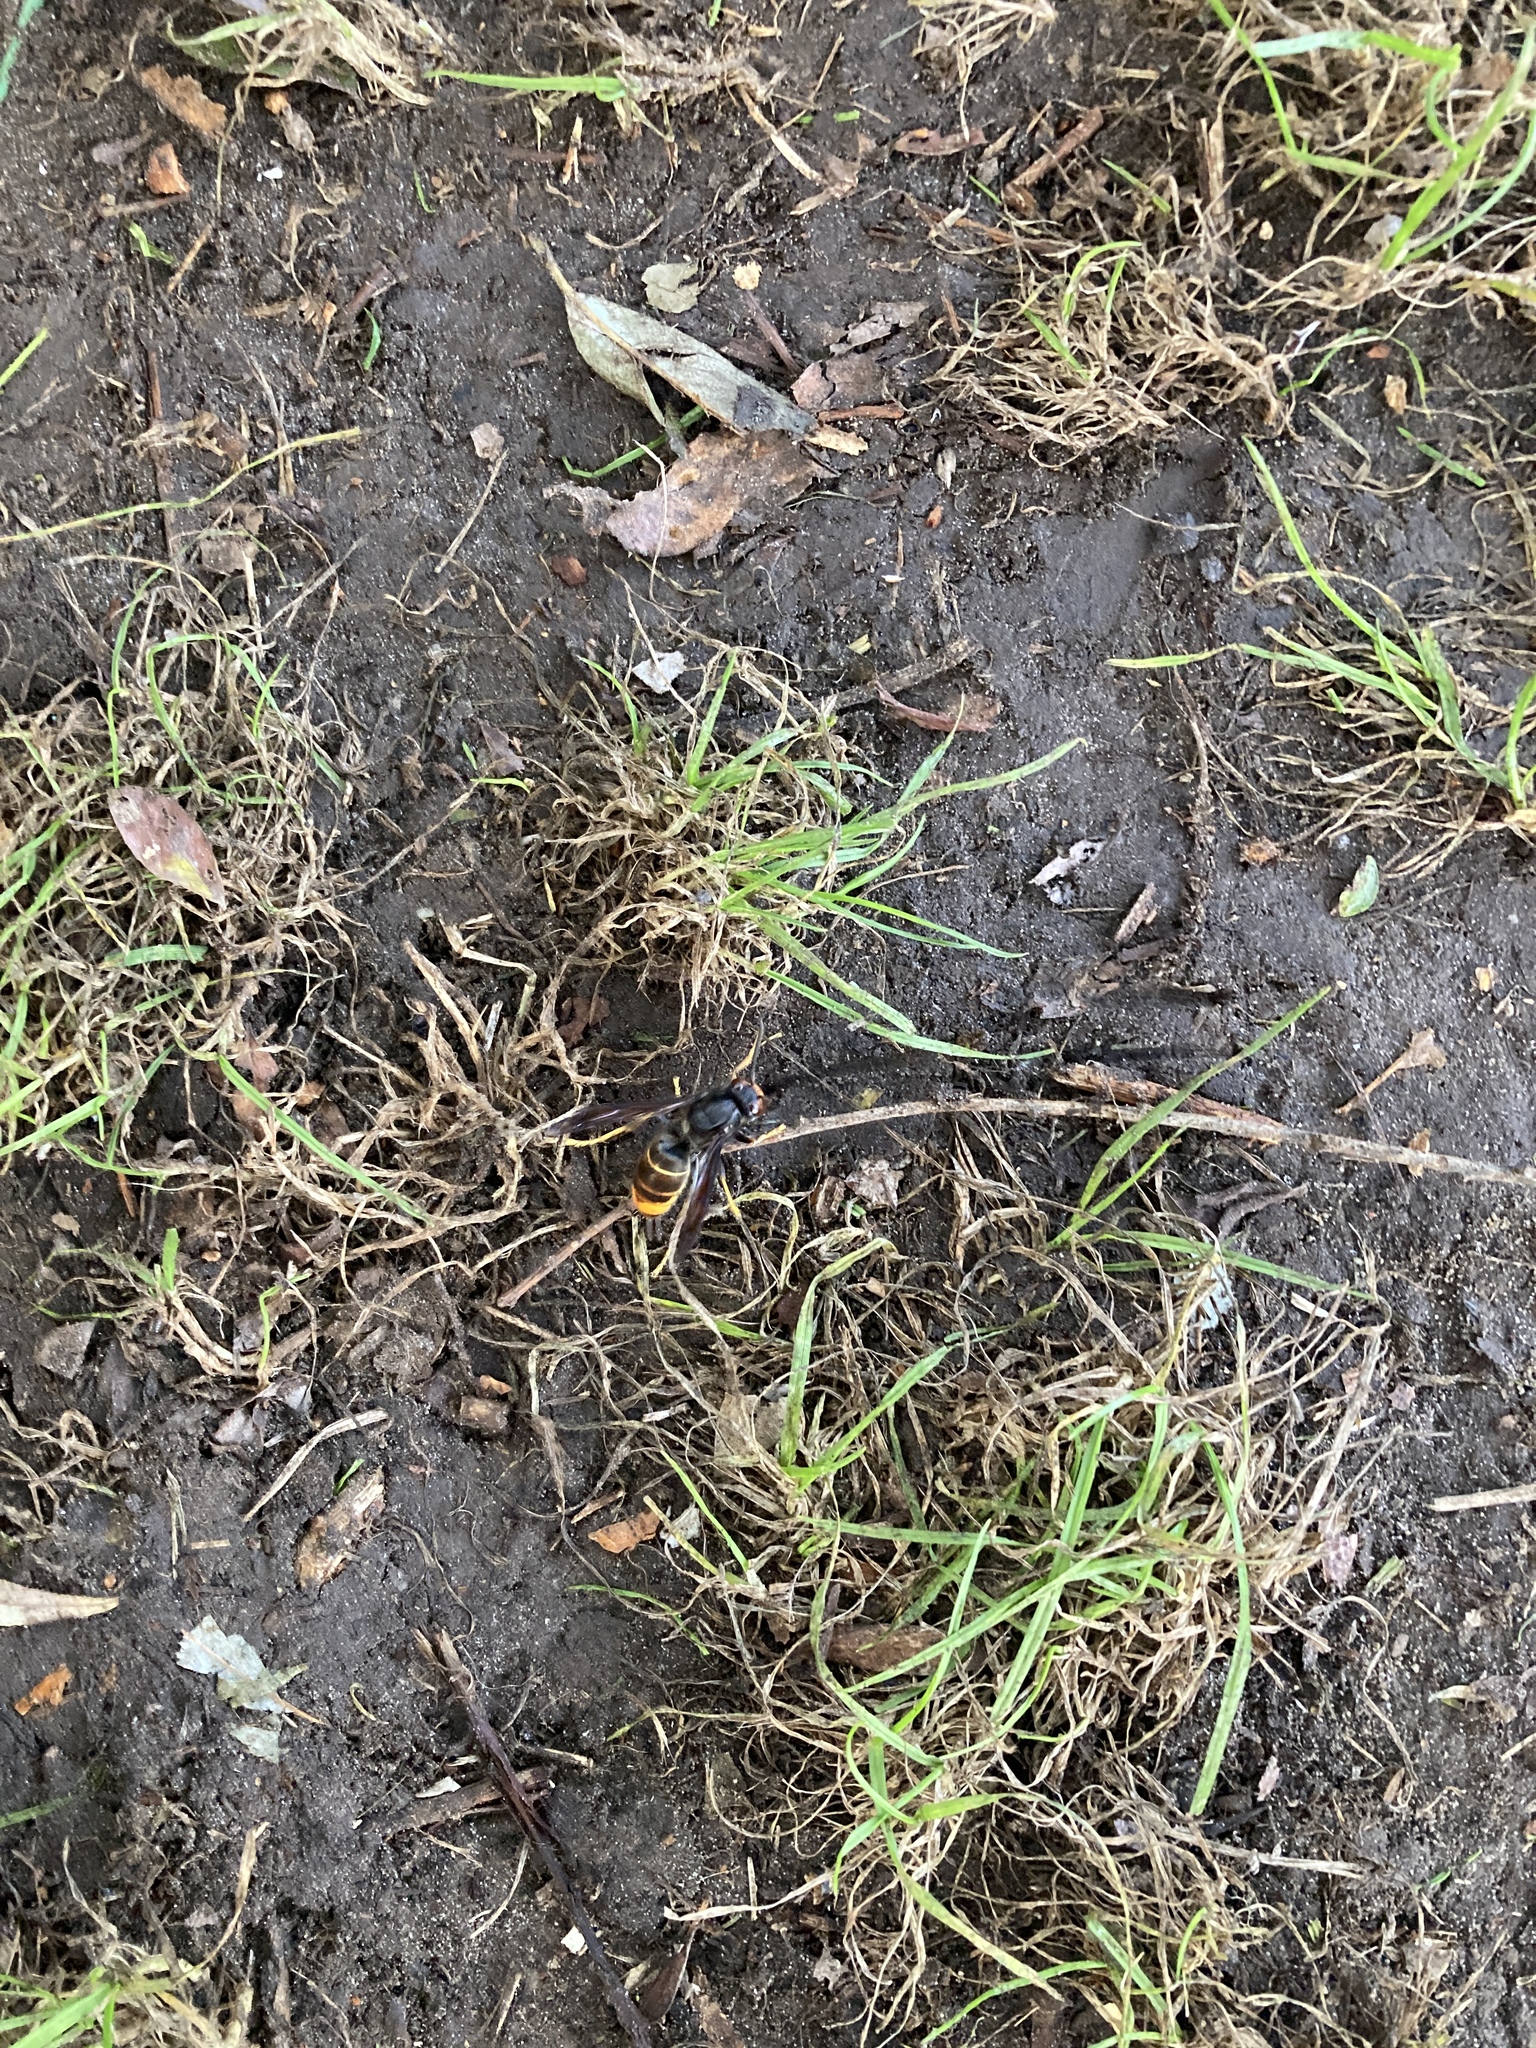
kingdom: Animalia
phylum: Arthropoda
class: Insecta
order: Hymenoptera
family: Vespidae
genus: Vespa
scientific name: Vespa velutina
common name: Asian hornet
